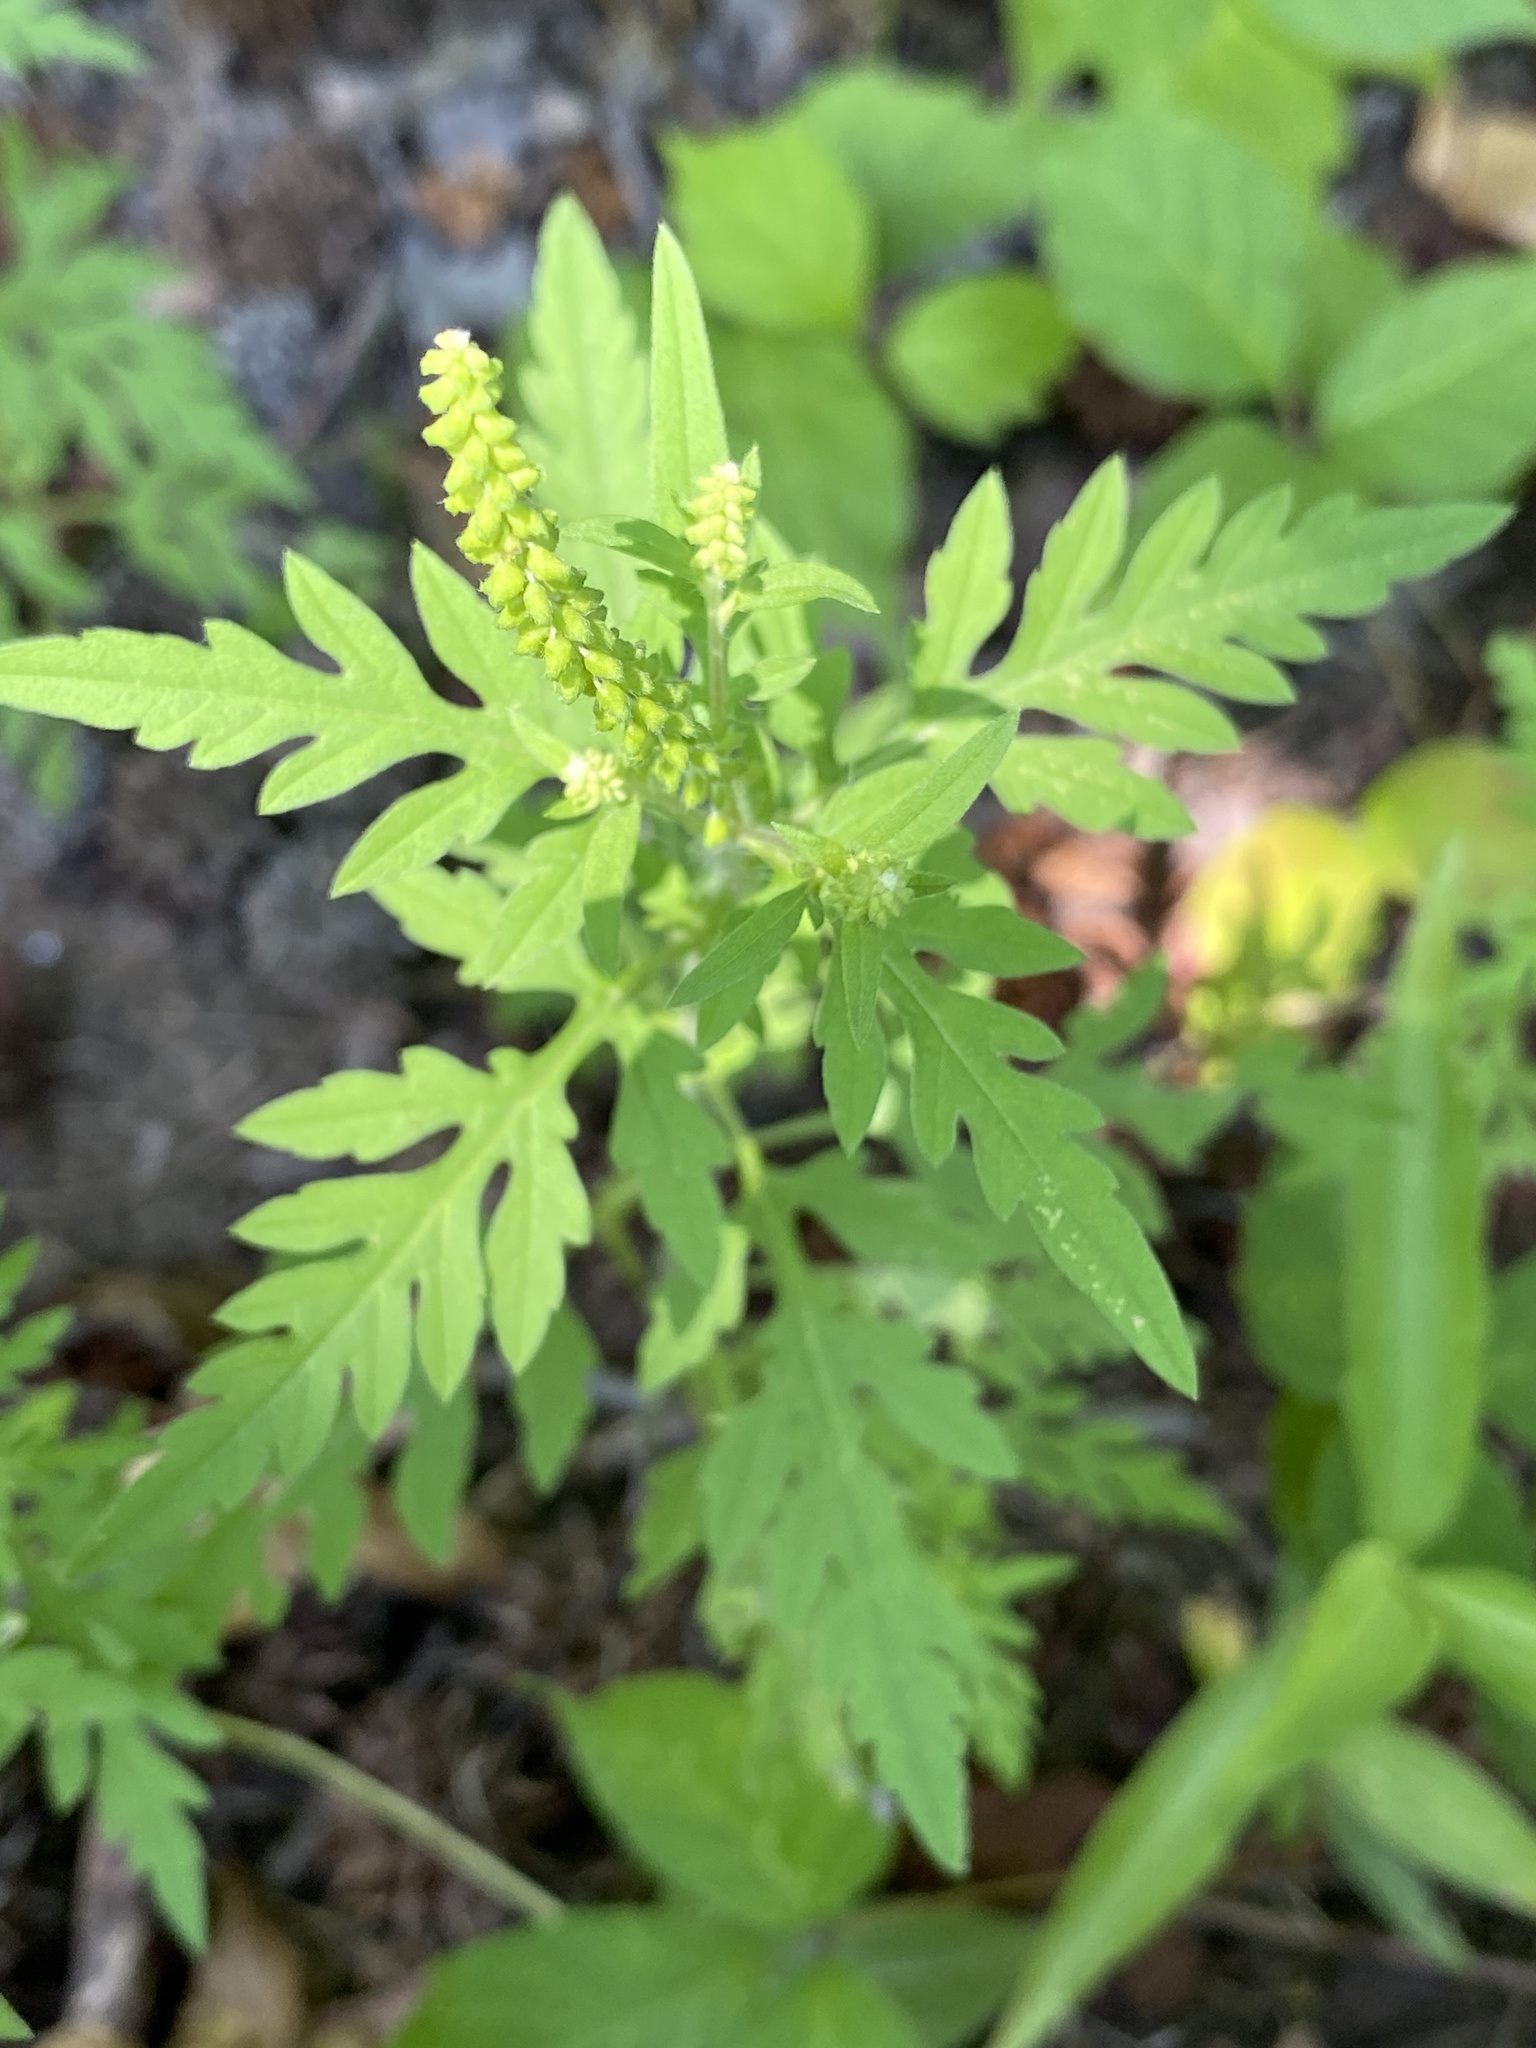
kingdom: Plantae
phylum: Tracheophyta
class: Magnoliopsida
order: Asterales
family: Asteraceae
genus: Ambrosia
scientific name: Ambrosia artemisiifolia
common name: Annual ragweed
